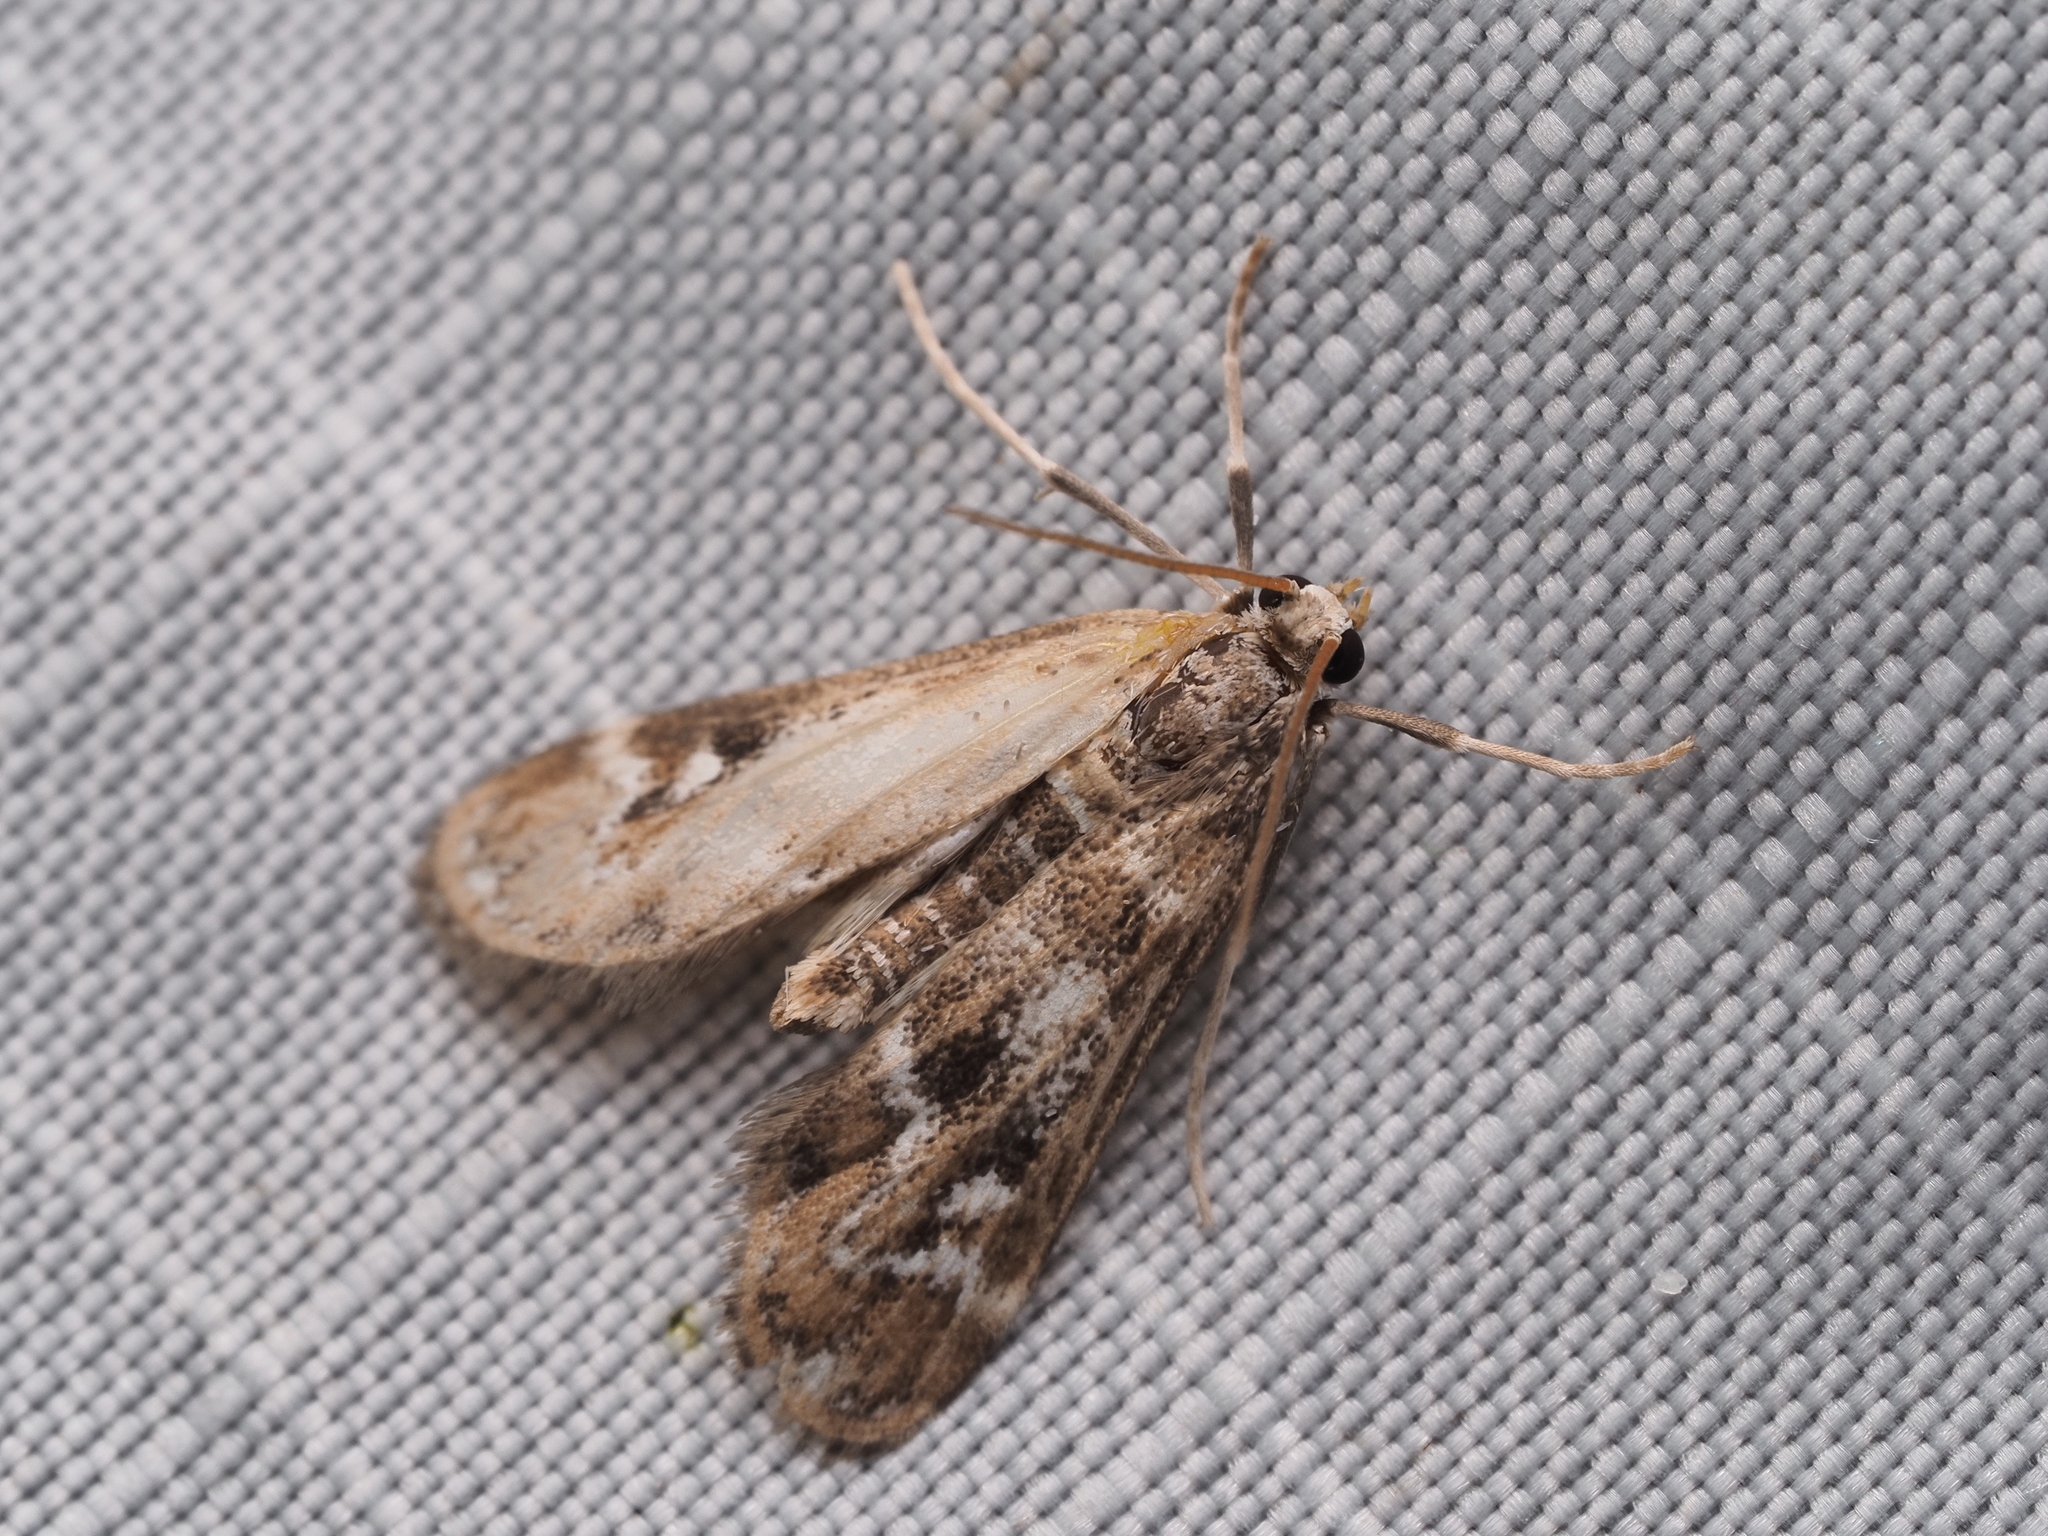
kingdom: Animalia
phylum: Arthropoda
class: Insecta
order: Lepidoptera
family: Crambidae
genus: Hygraula
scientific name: Hygraula nitens
